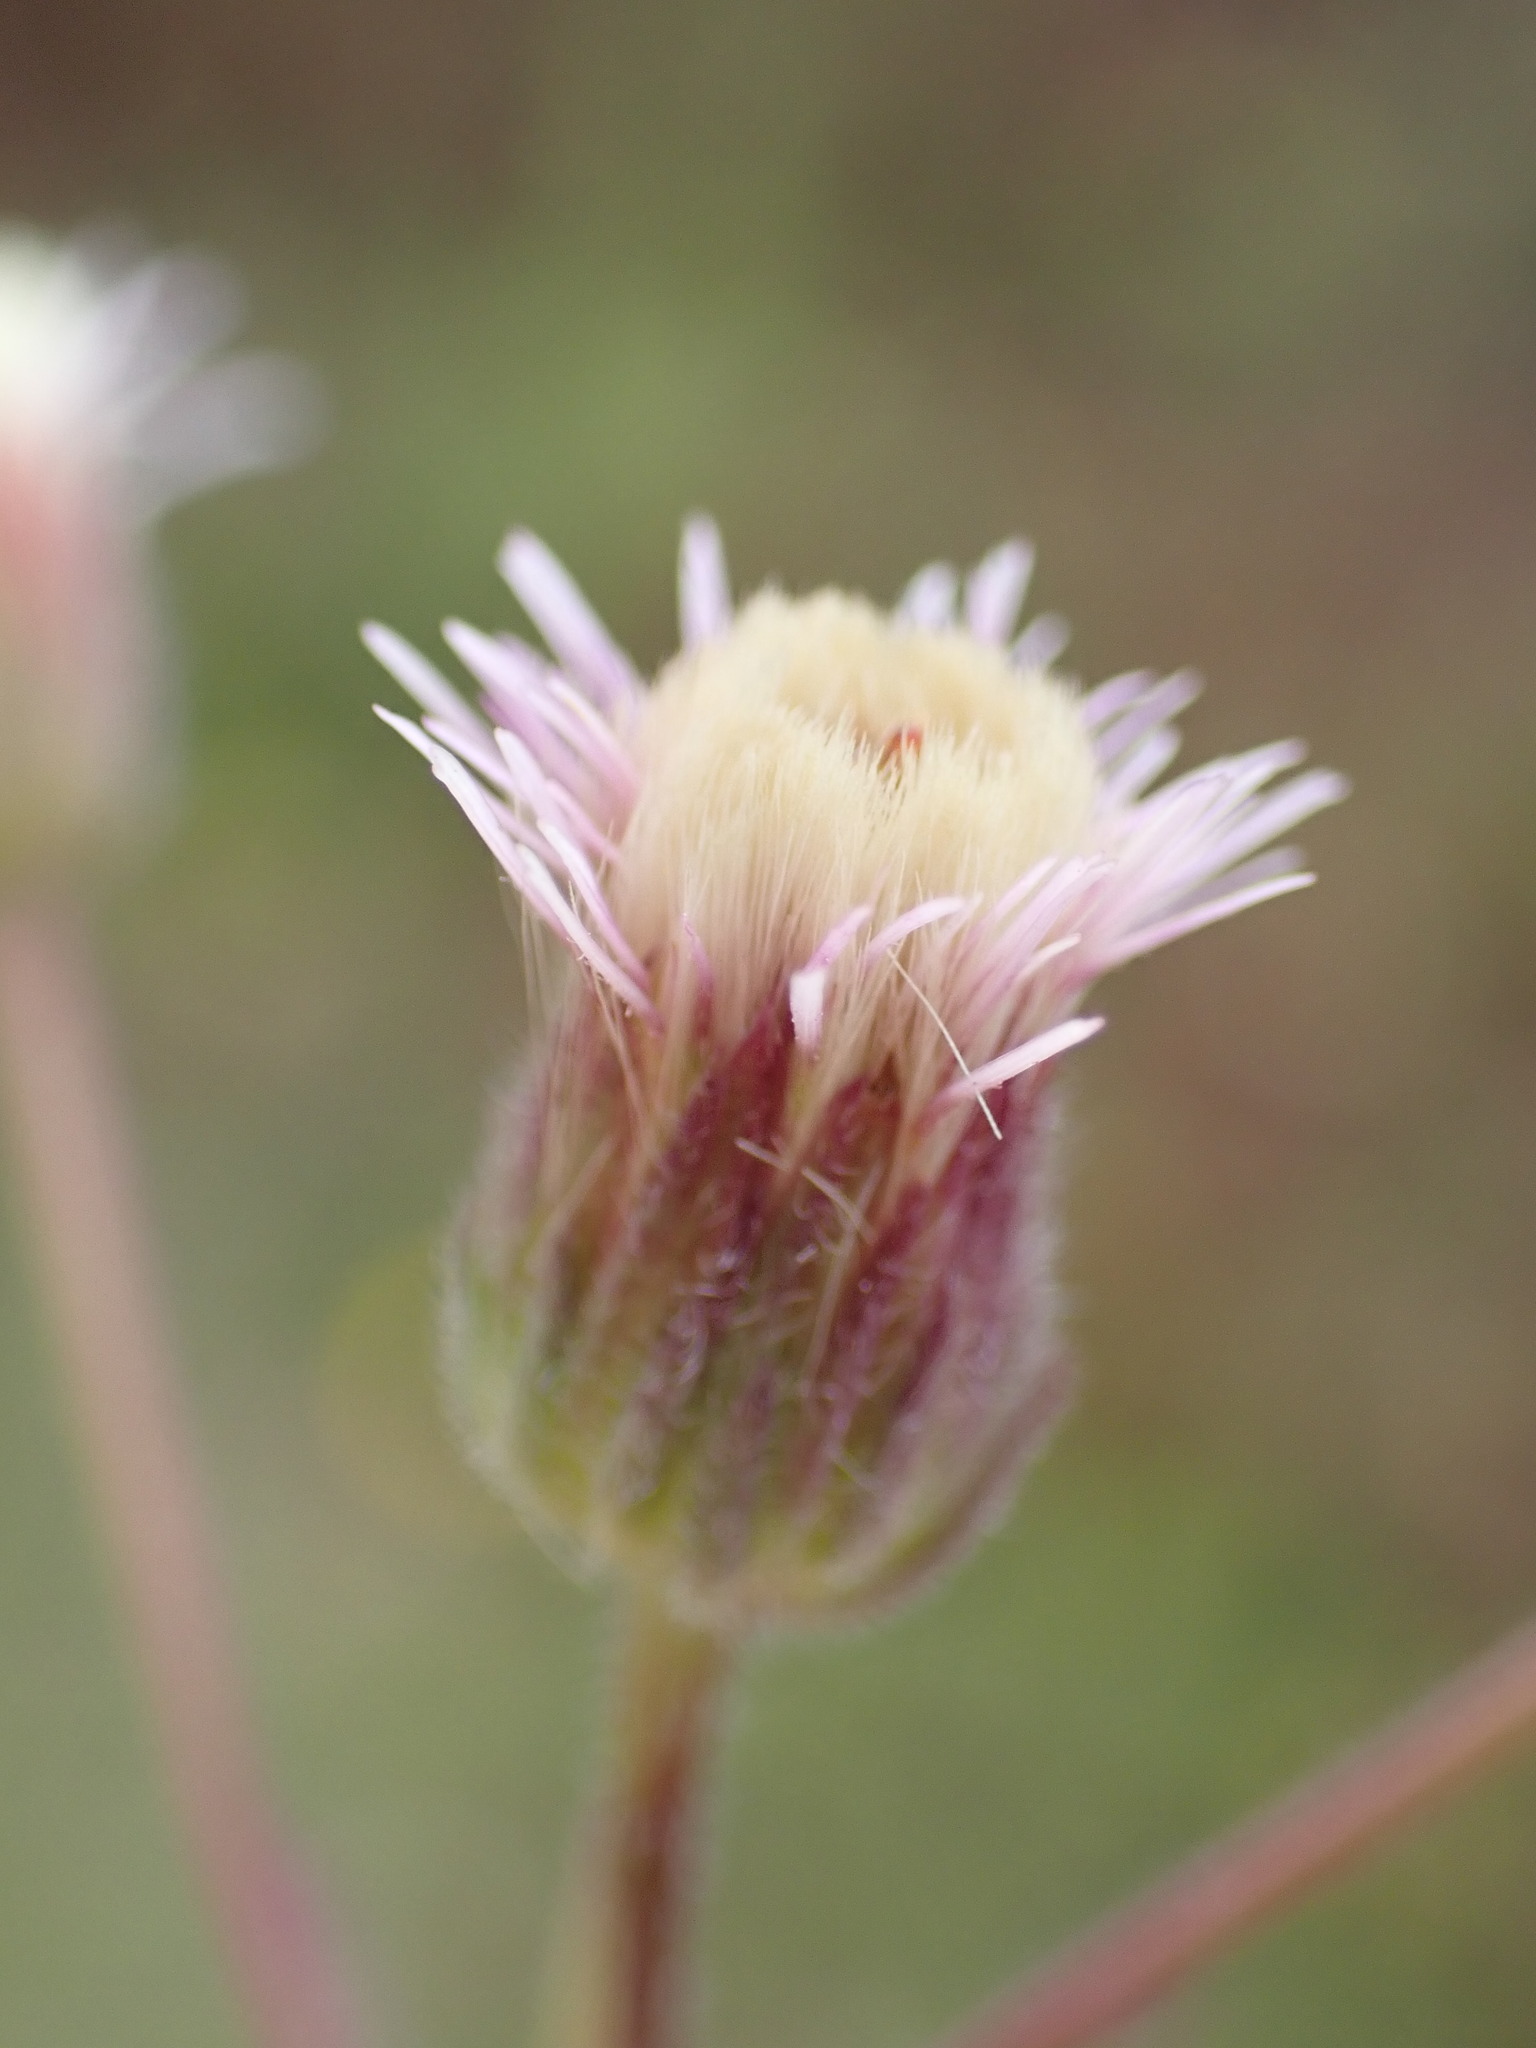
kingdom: Plantae
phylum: Tracheophyta
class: Magnoliopsida
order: Asterales
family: Asteraceae
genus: Erigeron
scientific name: Erigeron acris
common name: Blue fleabane
